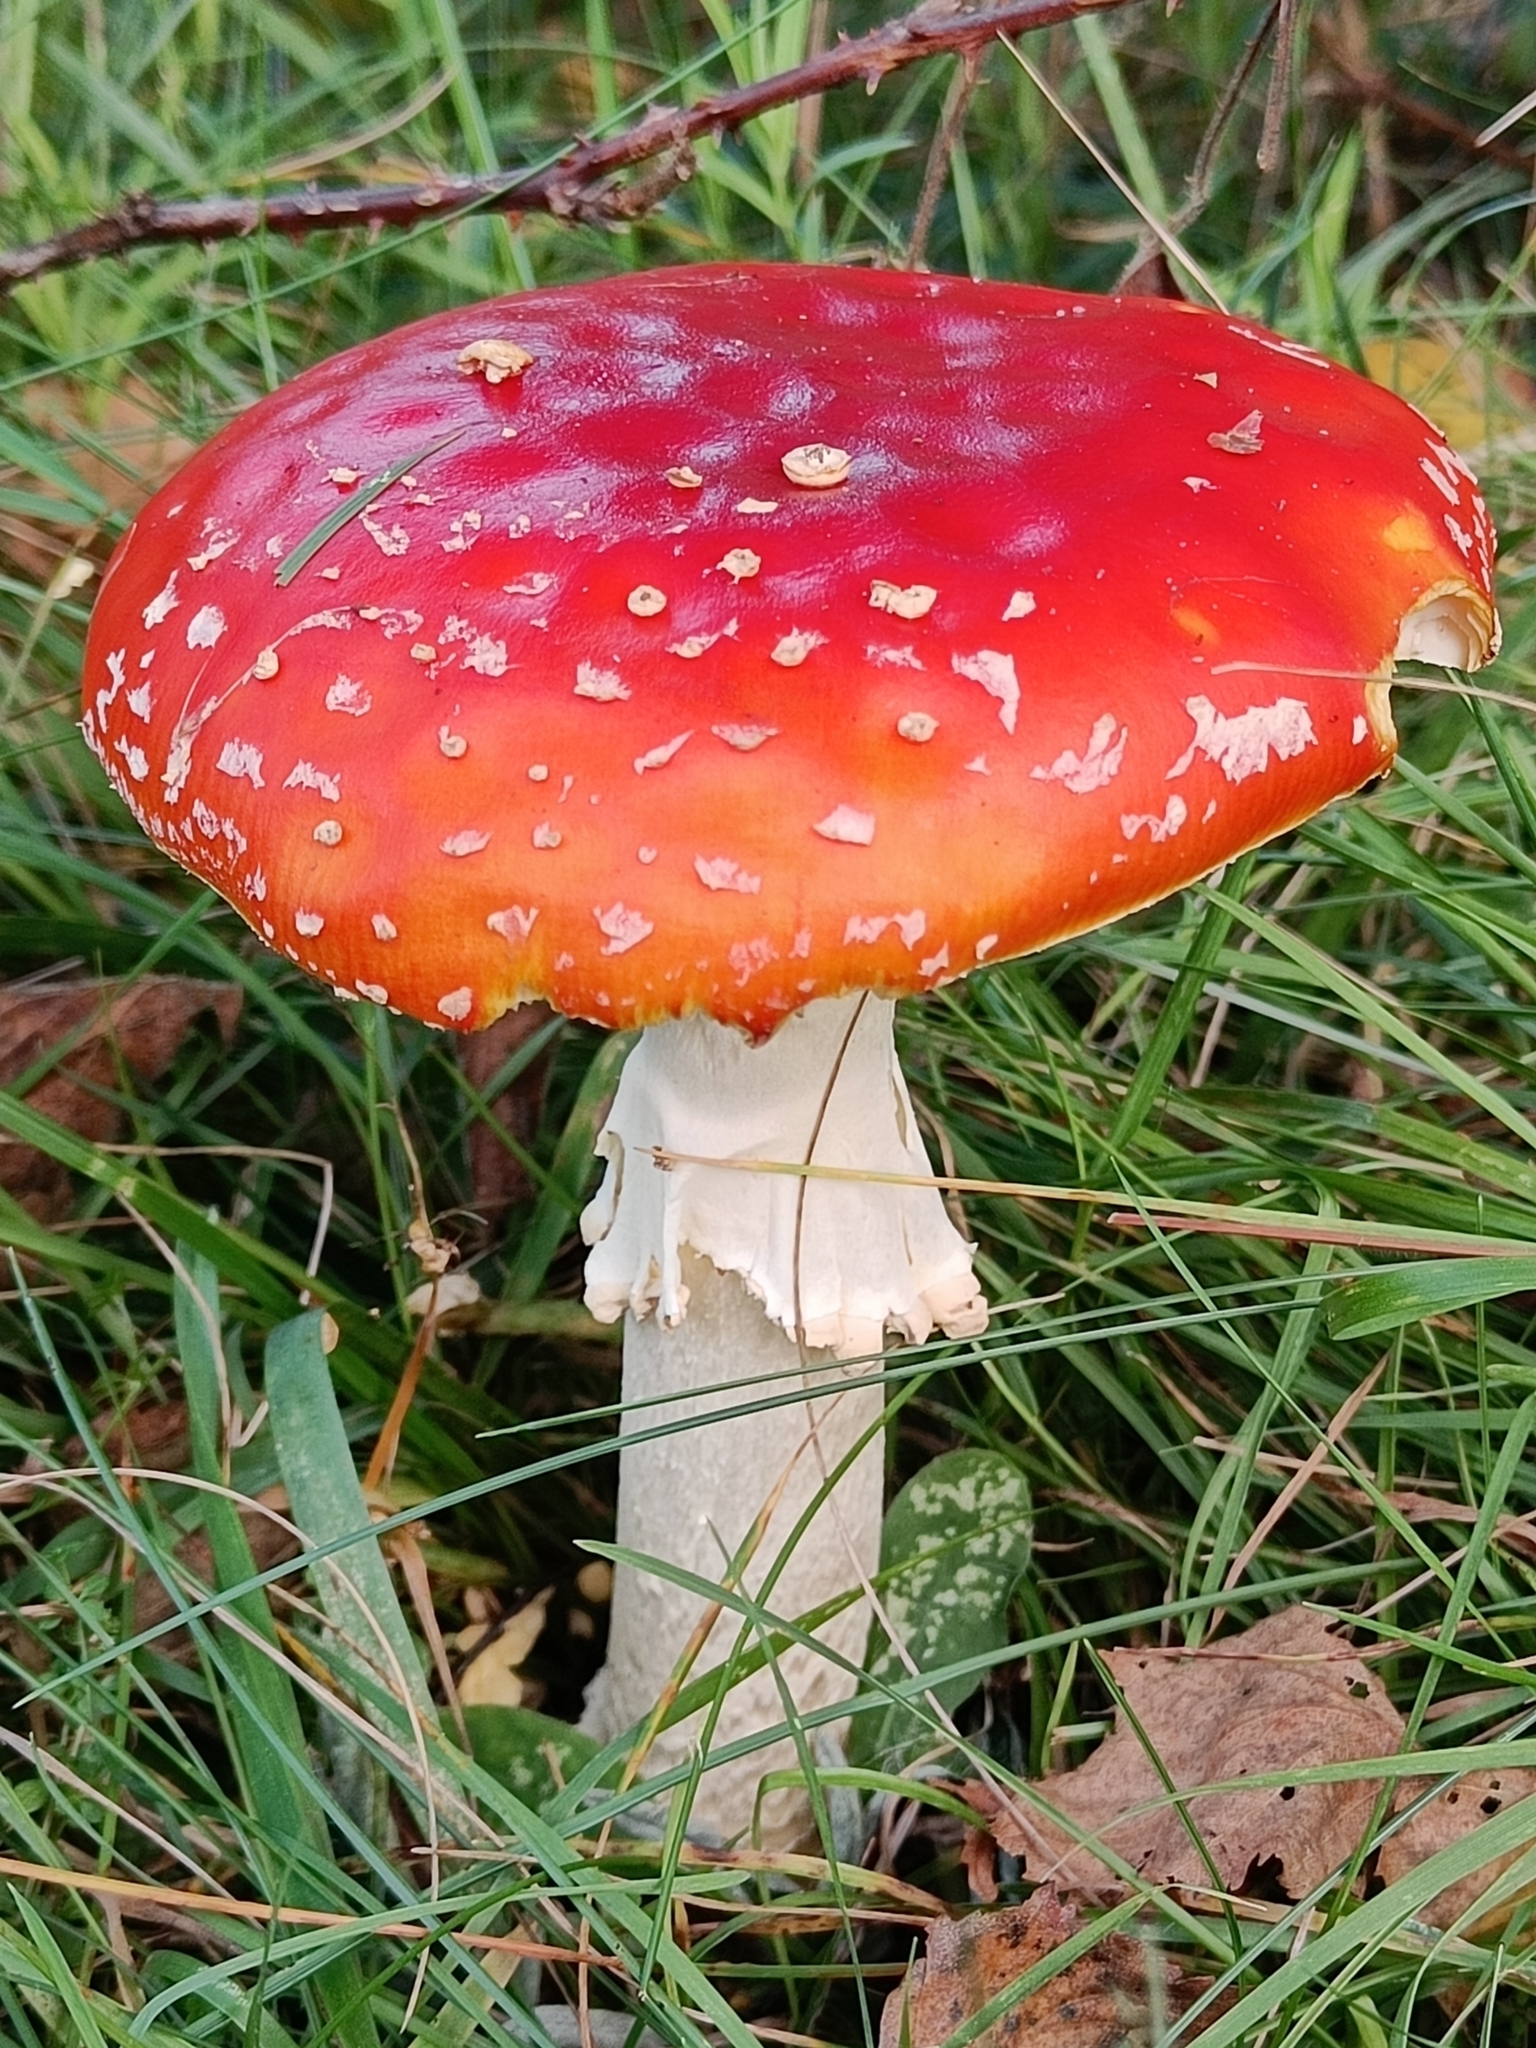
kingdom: Fungi
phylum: Basidiomycota
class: Agaricomycetes
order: Agaricales
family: Amanitaceae
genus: Amanita
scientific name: Amanita muscaria
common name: Fly agaric
